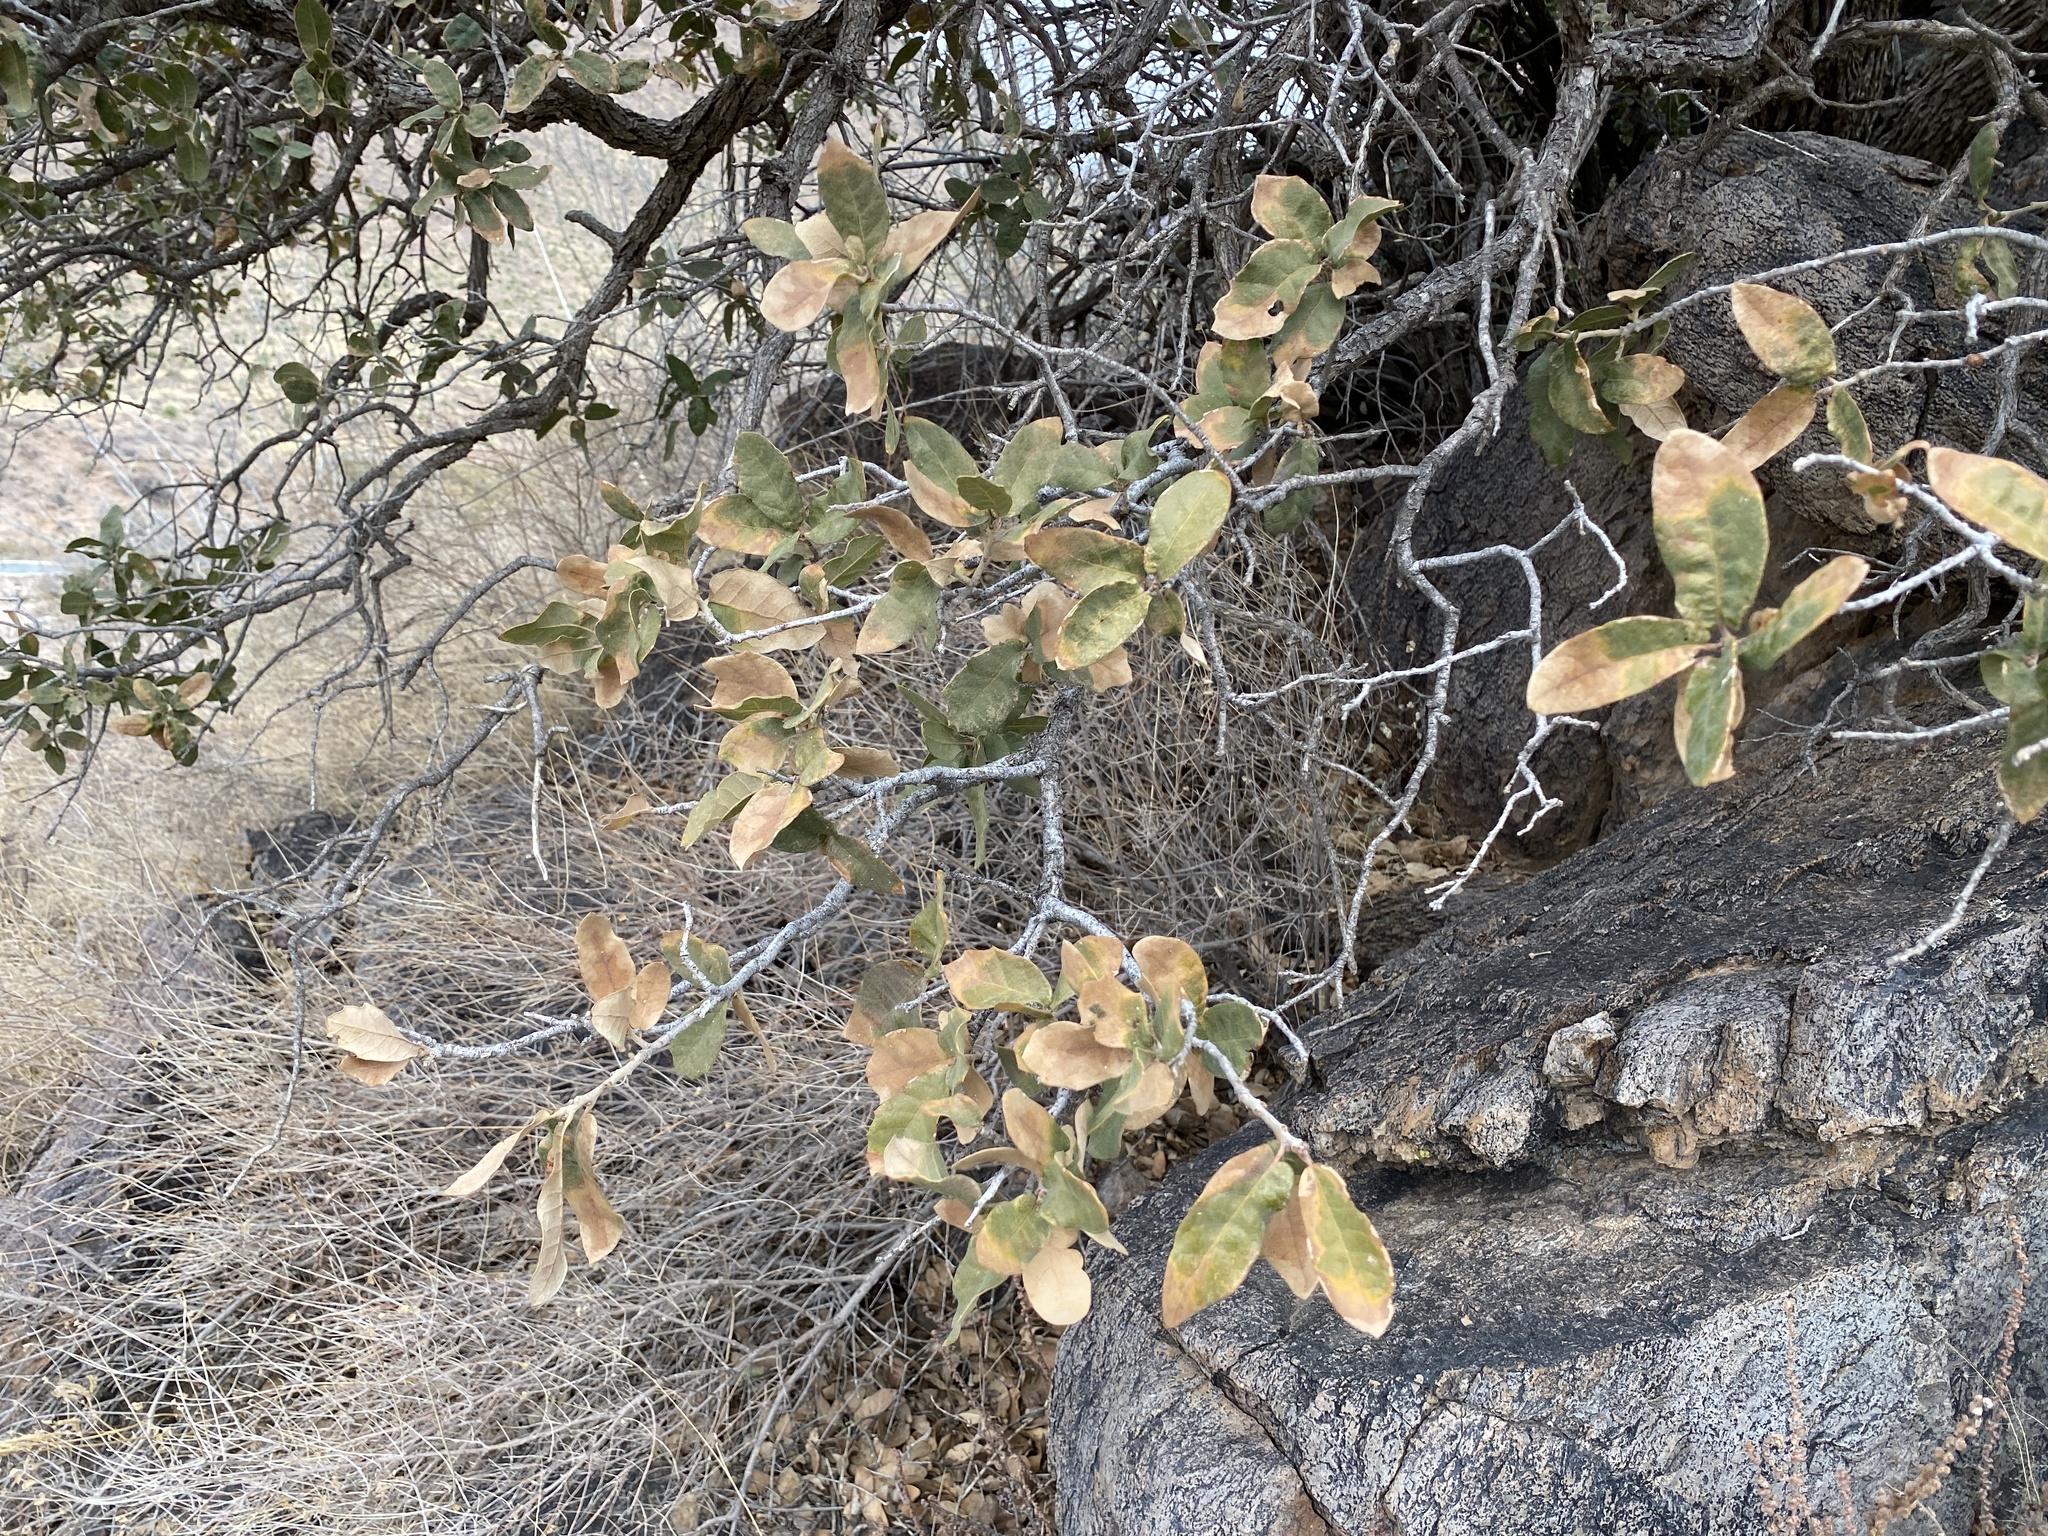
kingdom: Plantae
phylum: Tracheophyta
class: Magnoliopsida
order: Fagales
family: Fagaceae
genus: Quercus
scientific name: Quercus arizonica
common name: Arizona white oak
